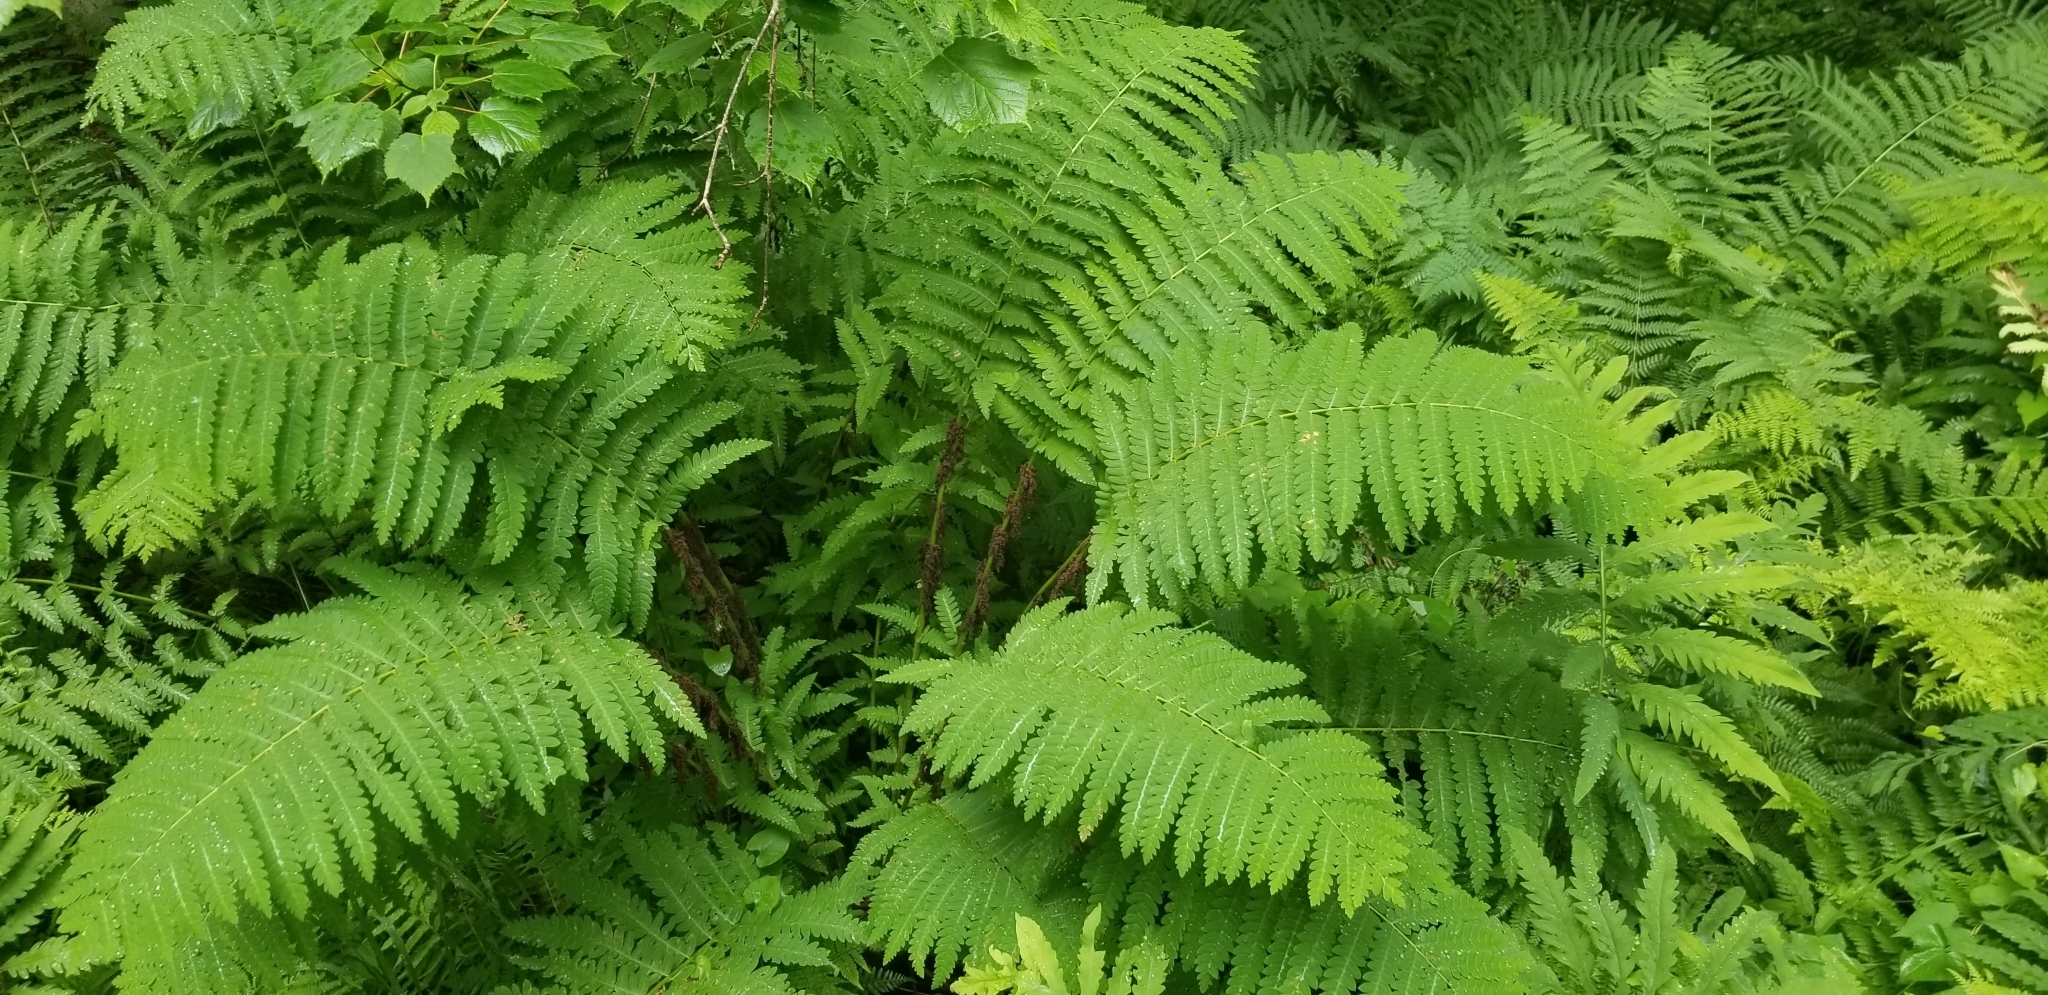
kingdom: Plantae
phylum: Tracheophyta
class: Polypodiopsida
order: Osmundales
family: Osmundaceae
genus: Claytosmunda
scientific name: Claytosmunda claytoniana
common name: Clayton's fern
